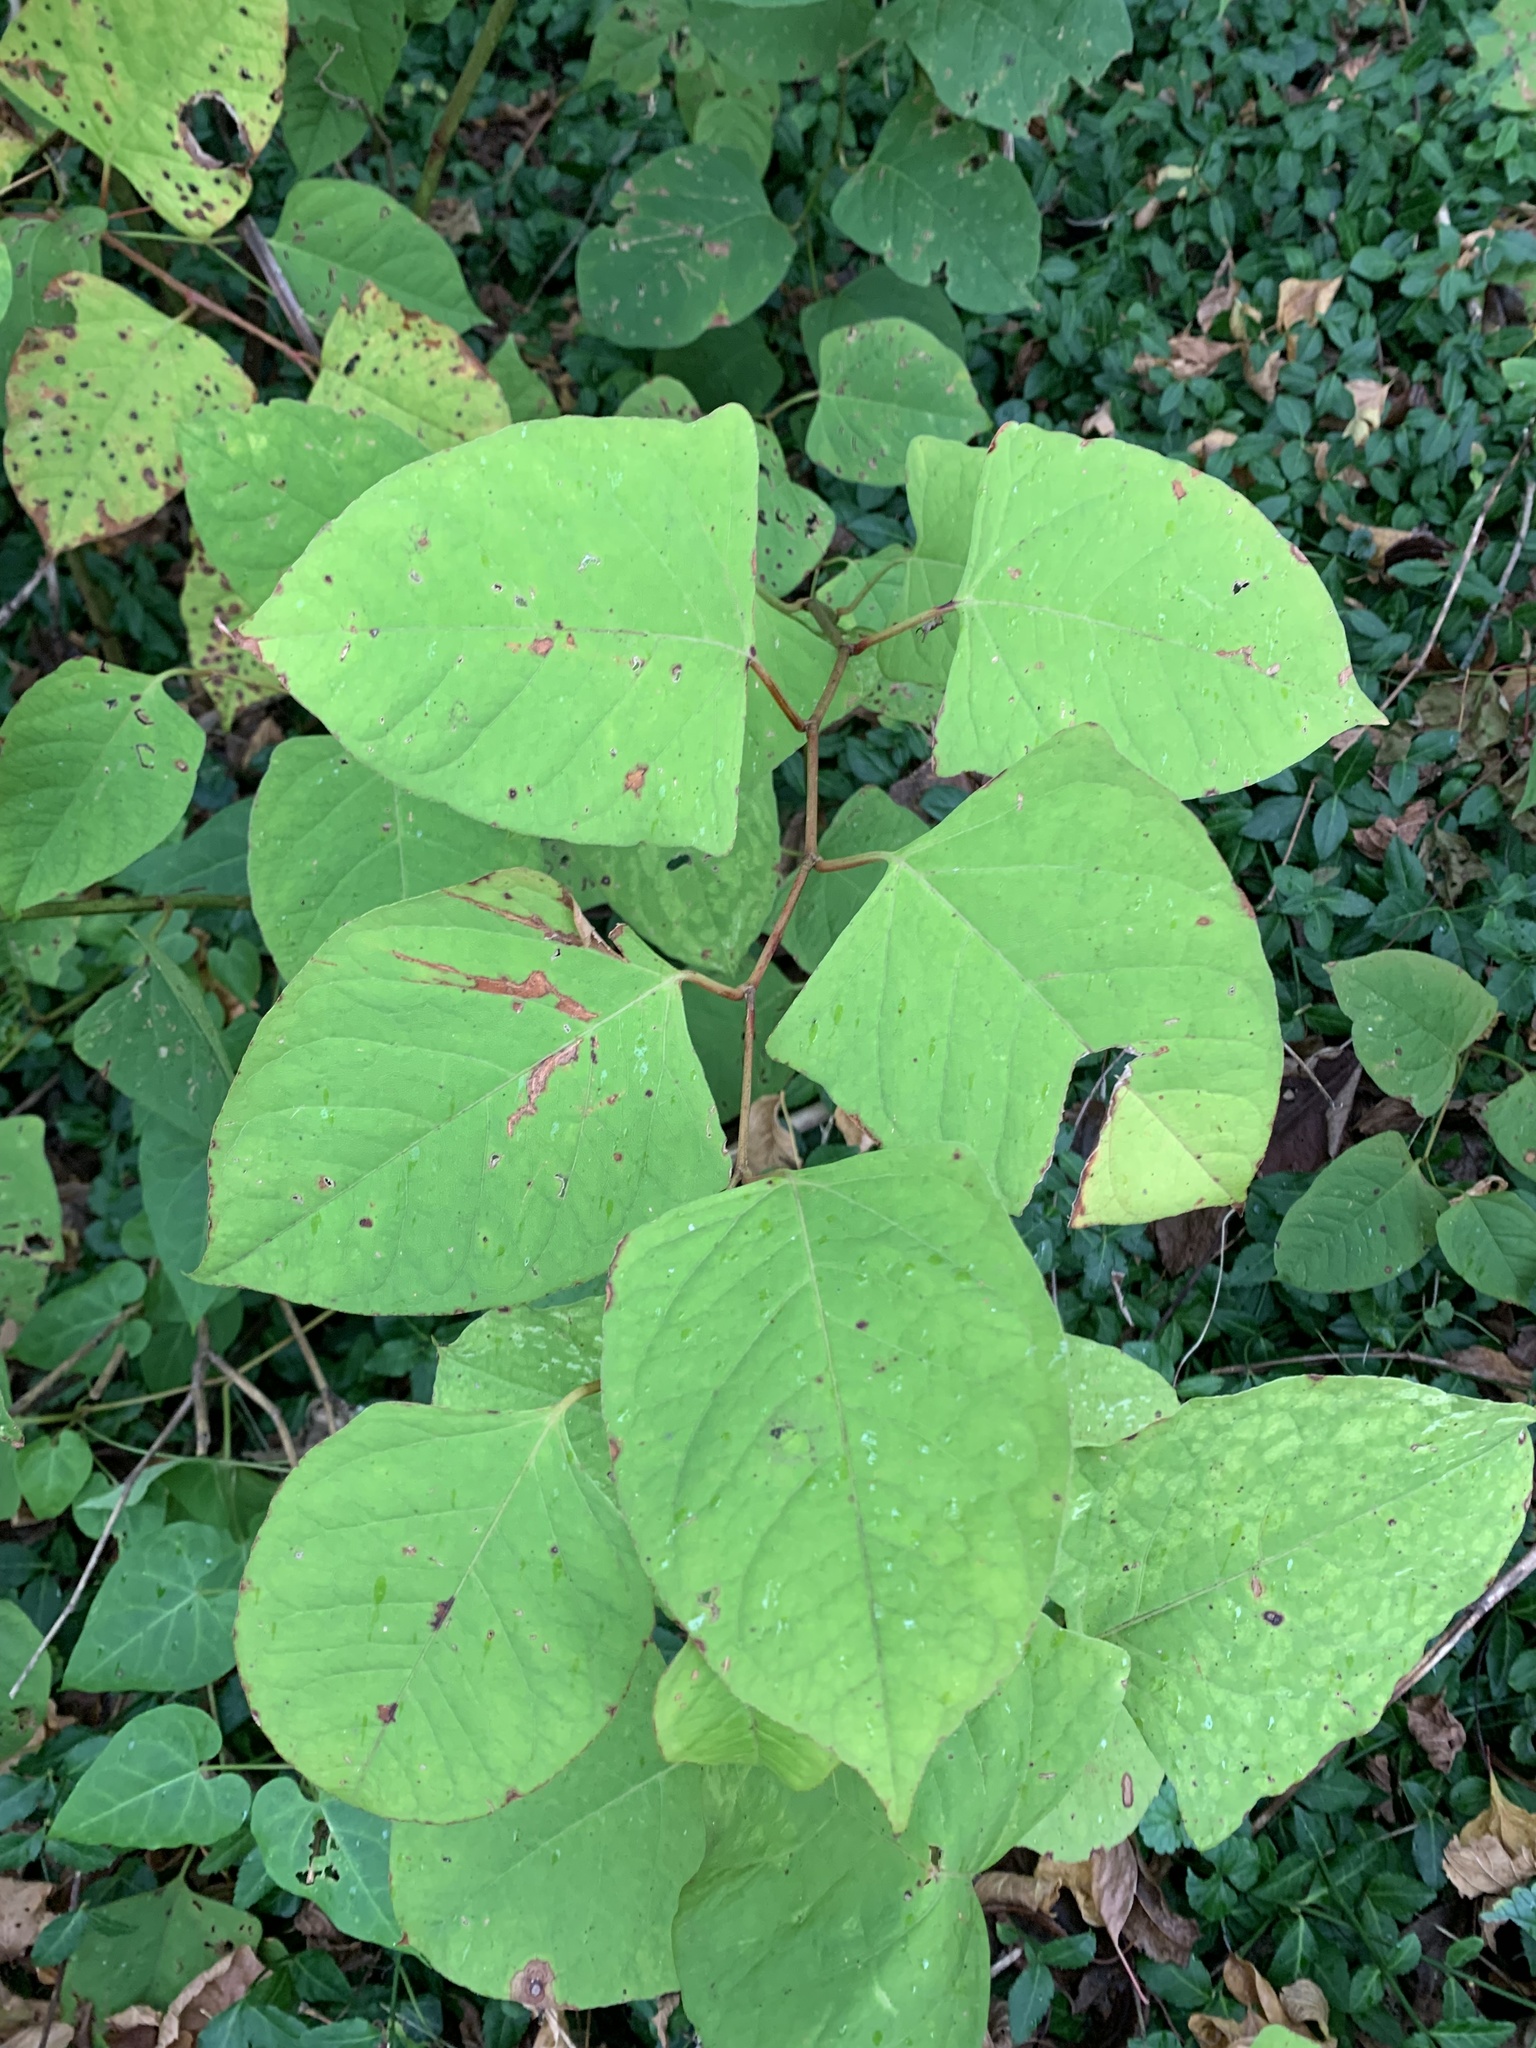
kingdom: Plantae
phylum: Tracheophyta
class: Magnoliopsida
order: Caryophyllales
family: Polygonaceae
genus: Reynoutria
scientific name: Reynoutria japonica
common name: Japanese knotweed
